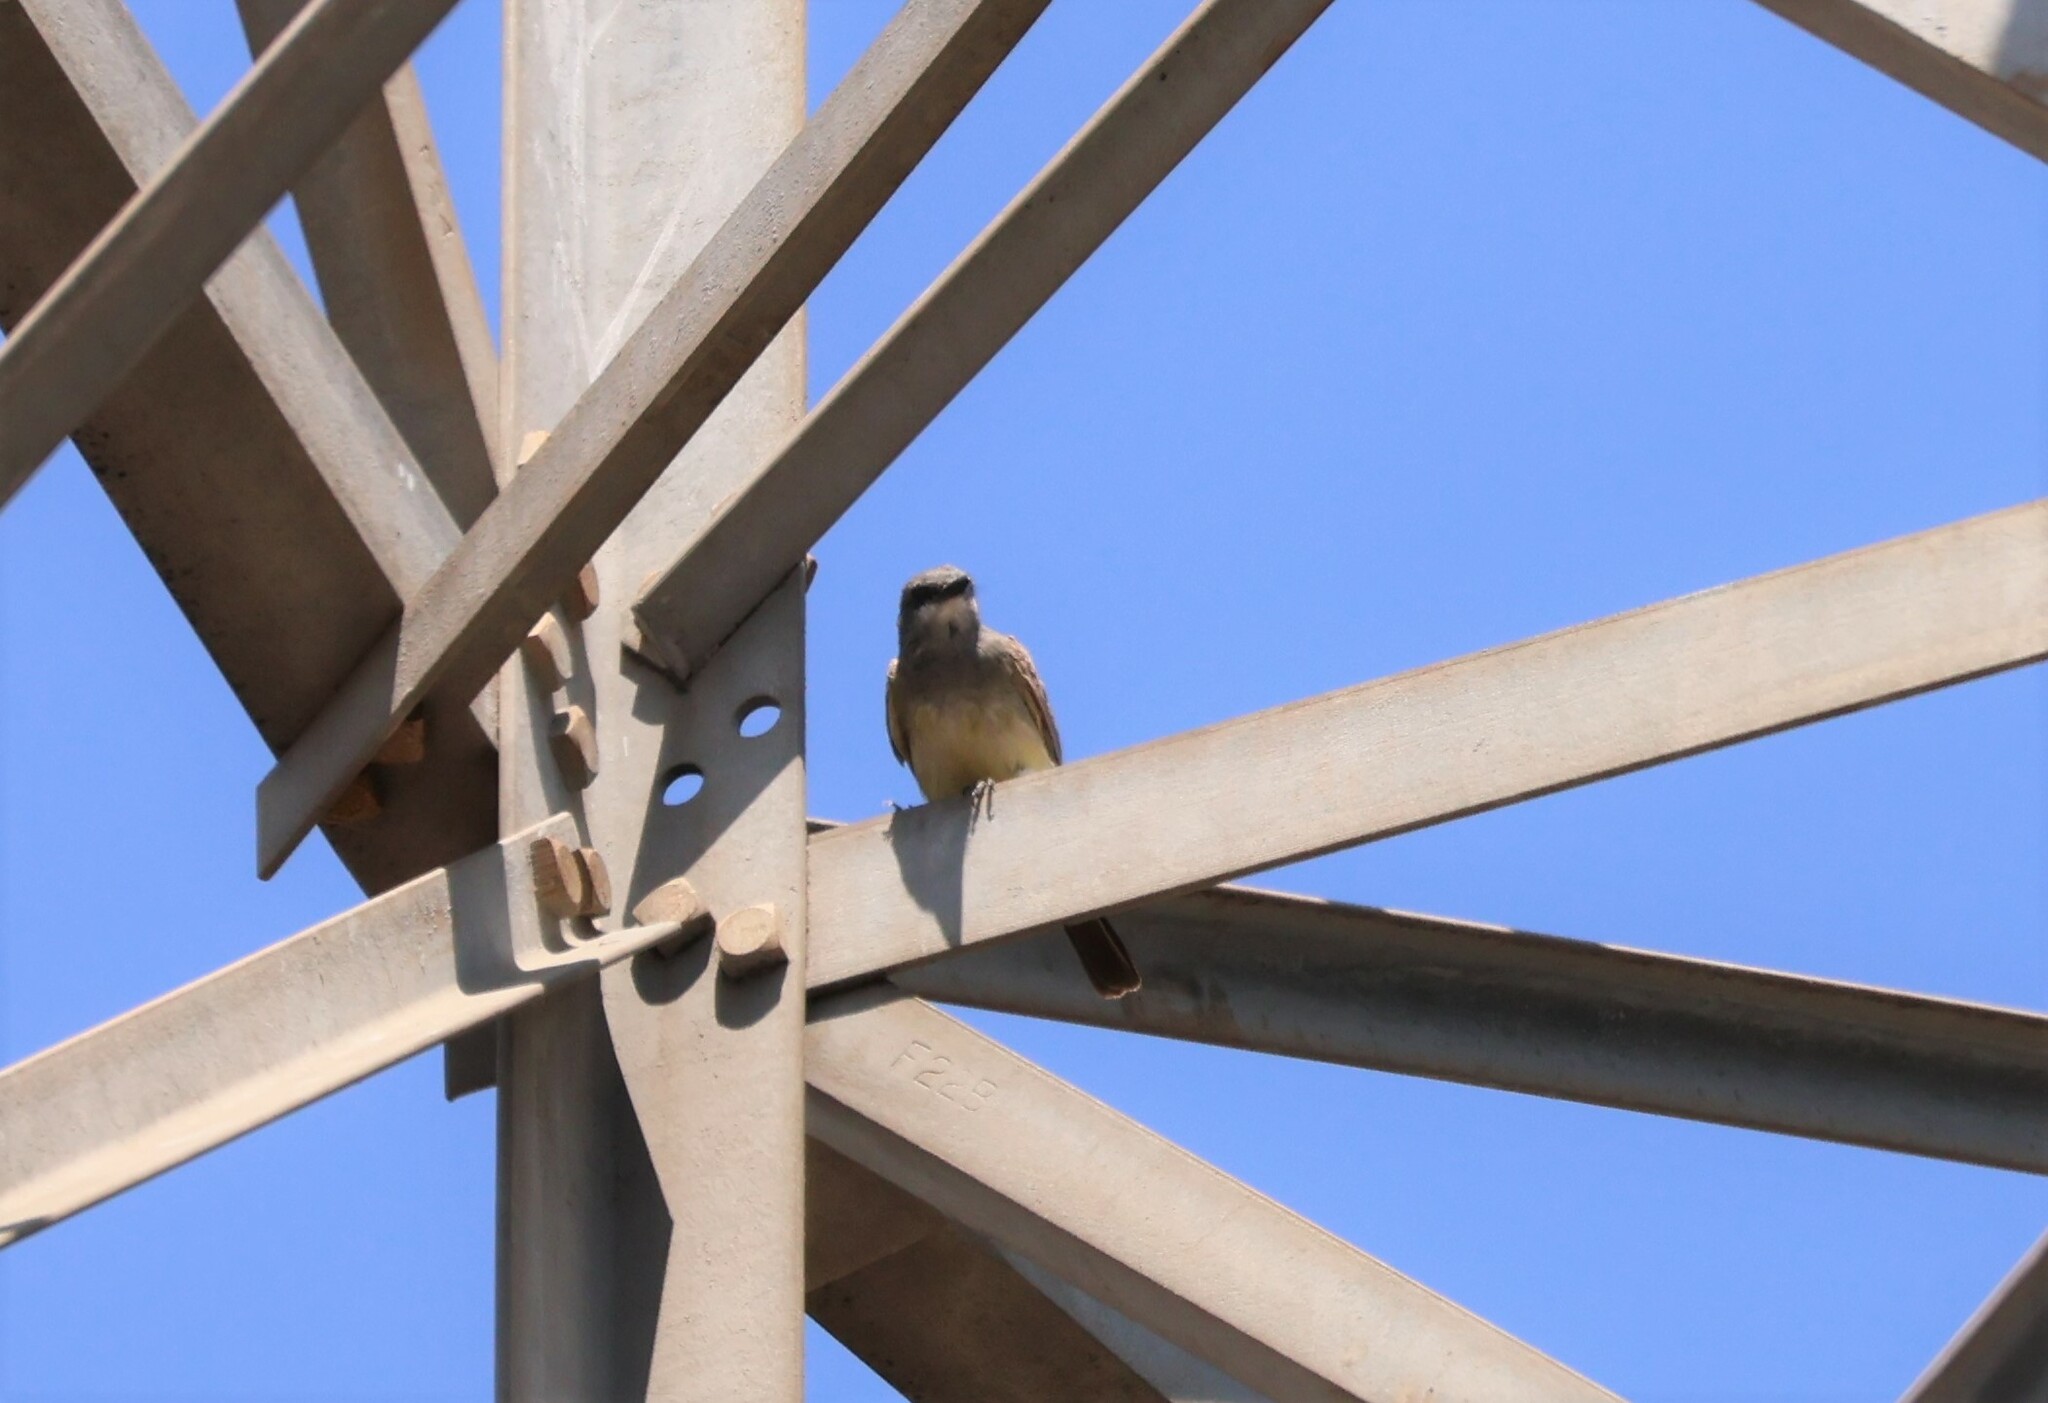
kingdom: Animalia
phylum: Chordata
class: Aves
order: Passeriformes
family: Tyrannidae
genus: Tyrannus
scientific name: Tyrannus vociferans
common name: Cassin's kingbird
